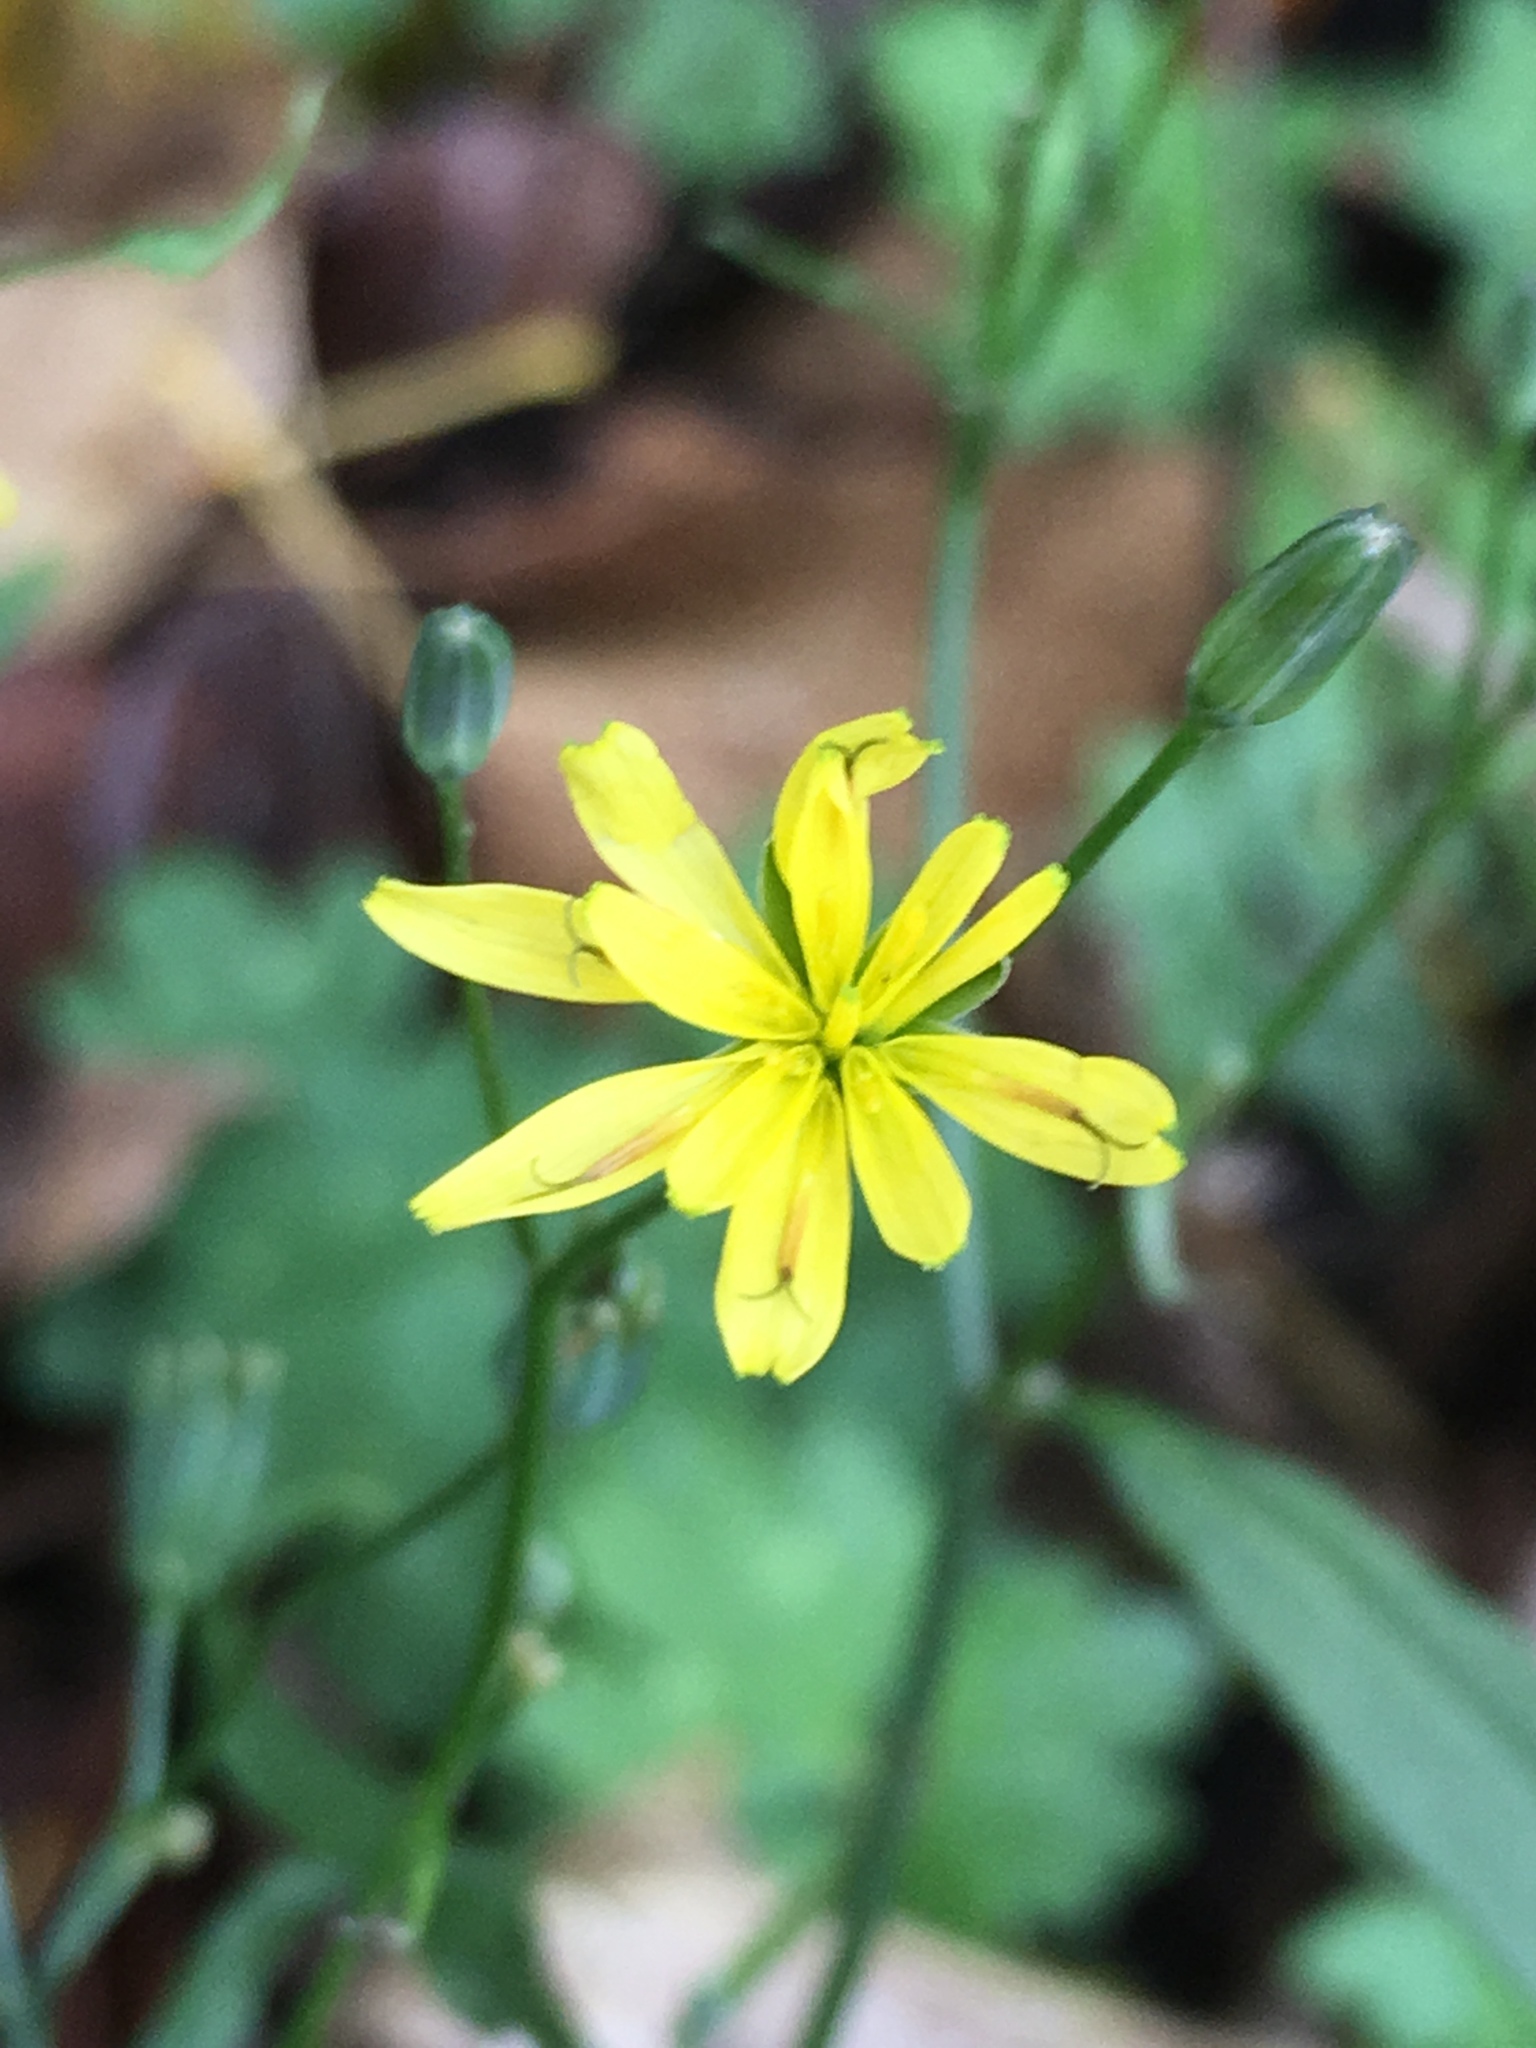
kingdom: Plantae
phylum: Tracheophyta
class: Magnoliopsida
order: Asterales
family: Asteraceae
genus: Lapsana
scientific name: Lapsana communis
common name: Nipplewort
